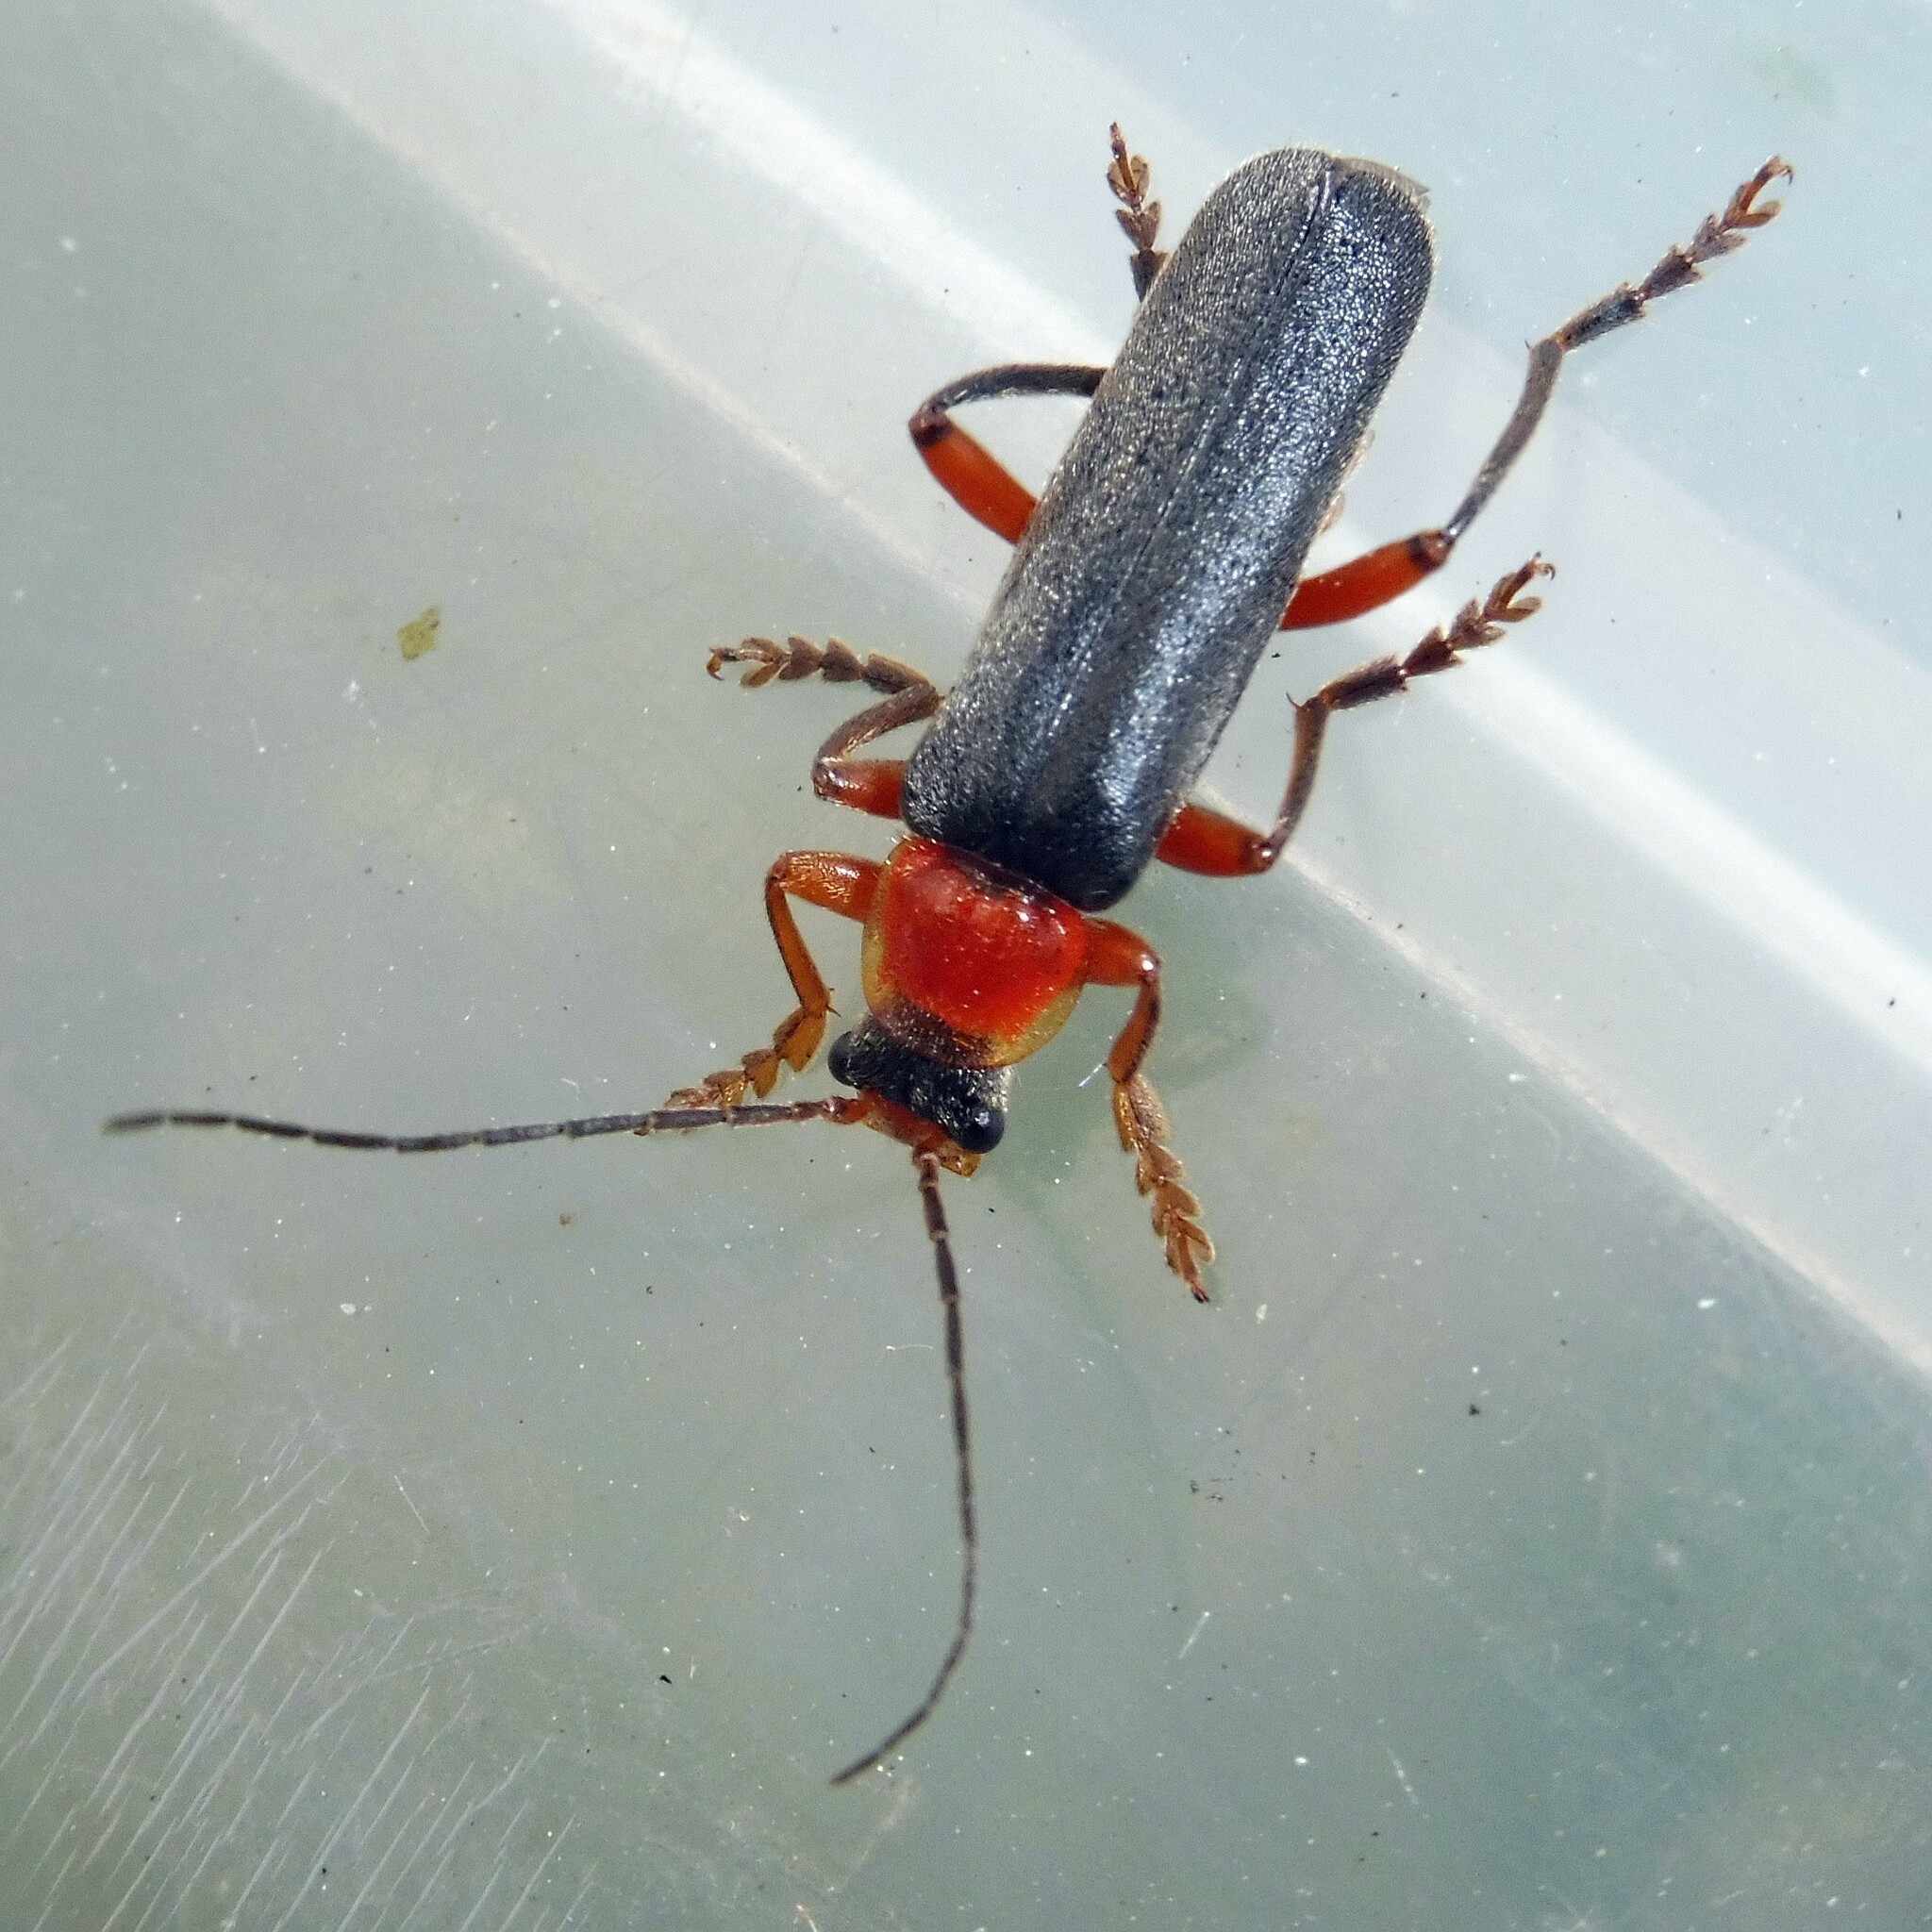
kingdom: Animalia
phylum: Arthropoda
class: Insecta
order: Coleoptera
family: Cantharidae
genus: Cantharis
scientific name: Cantharis pellucida
